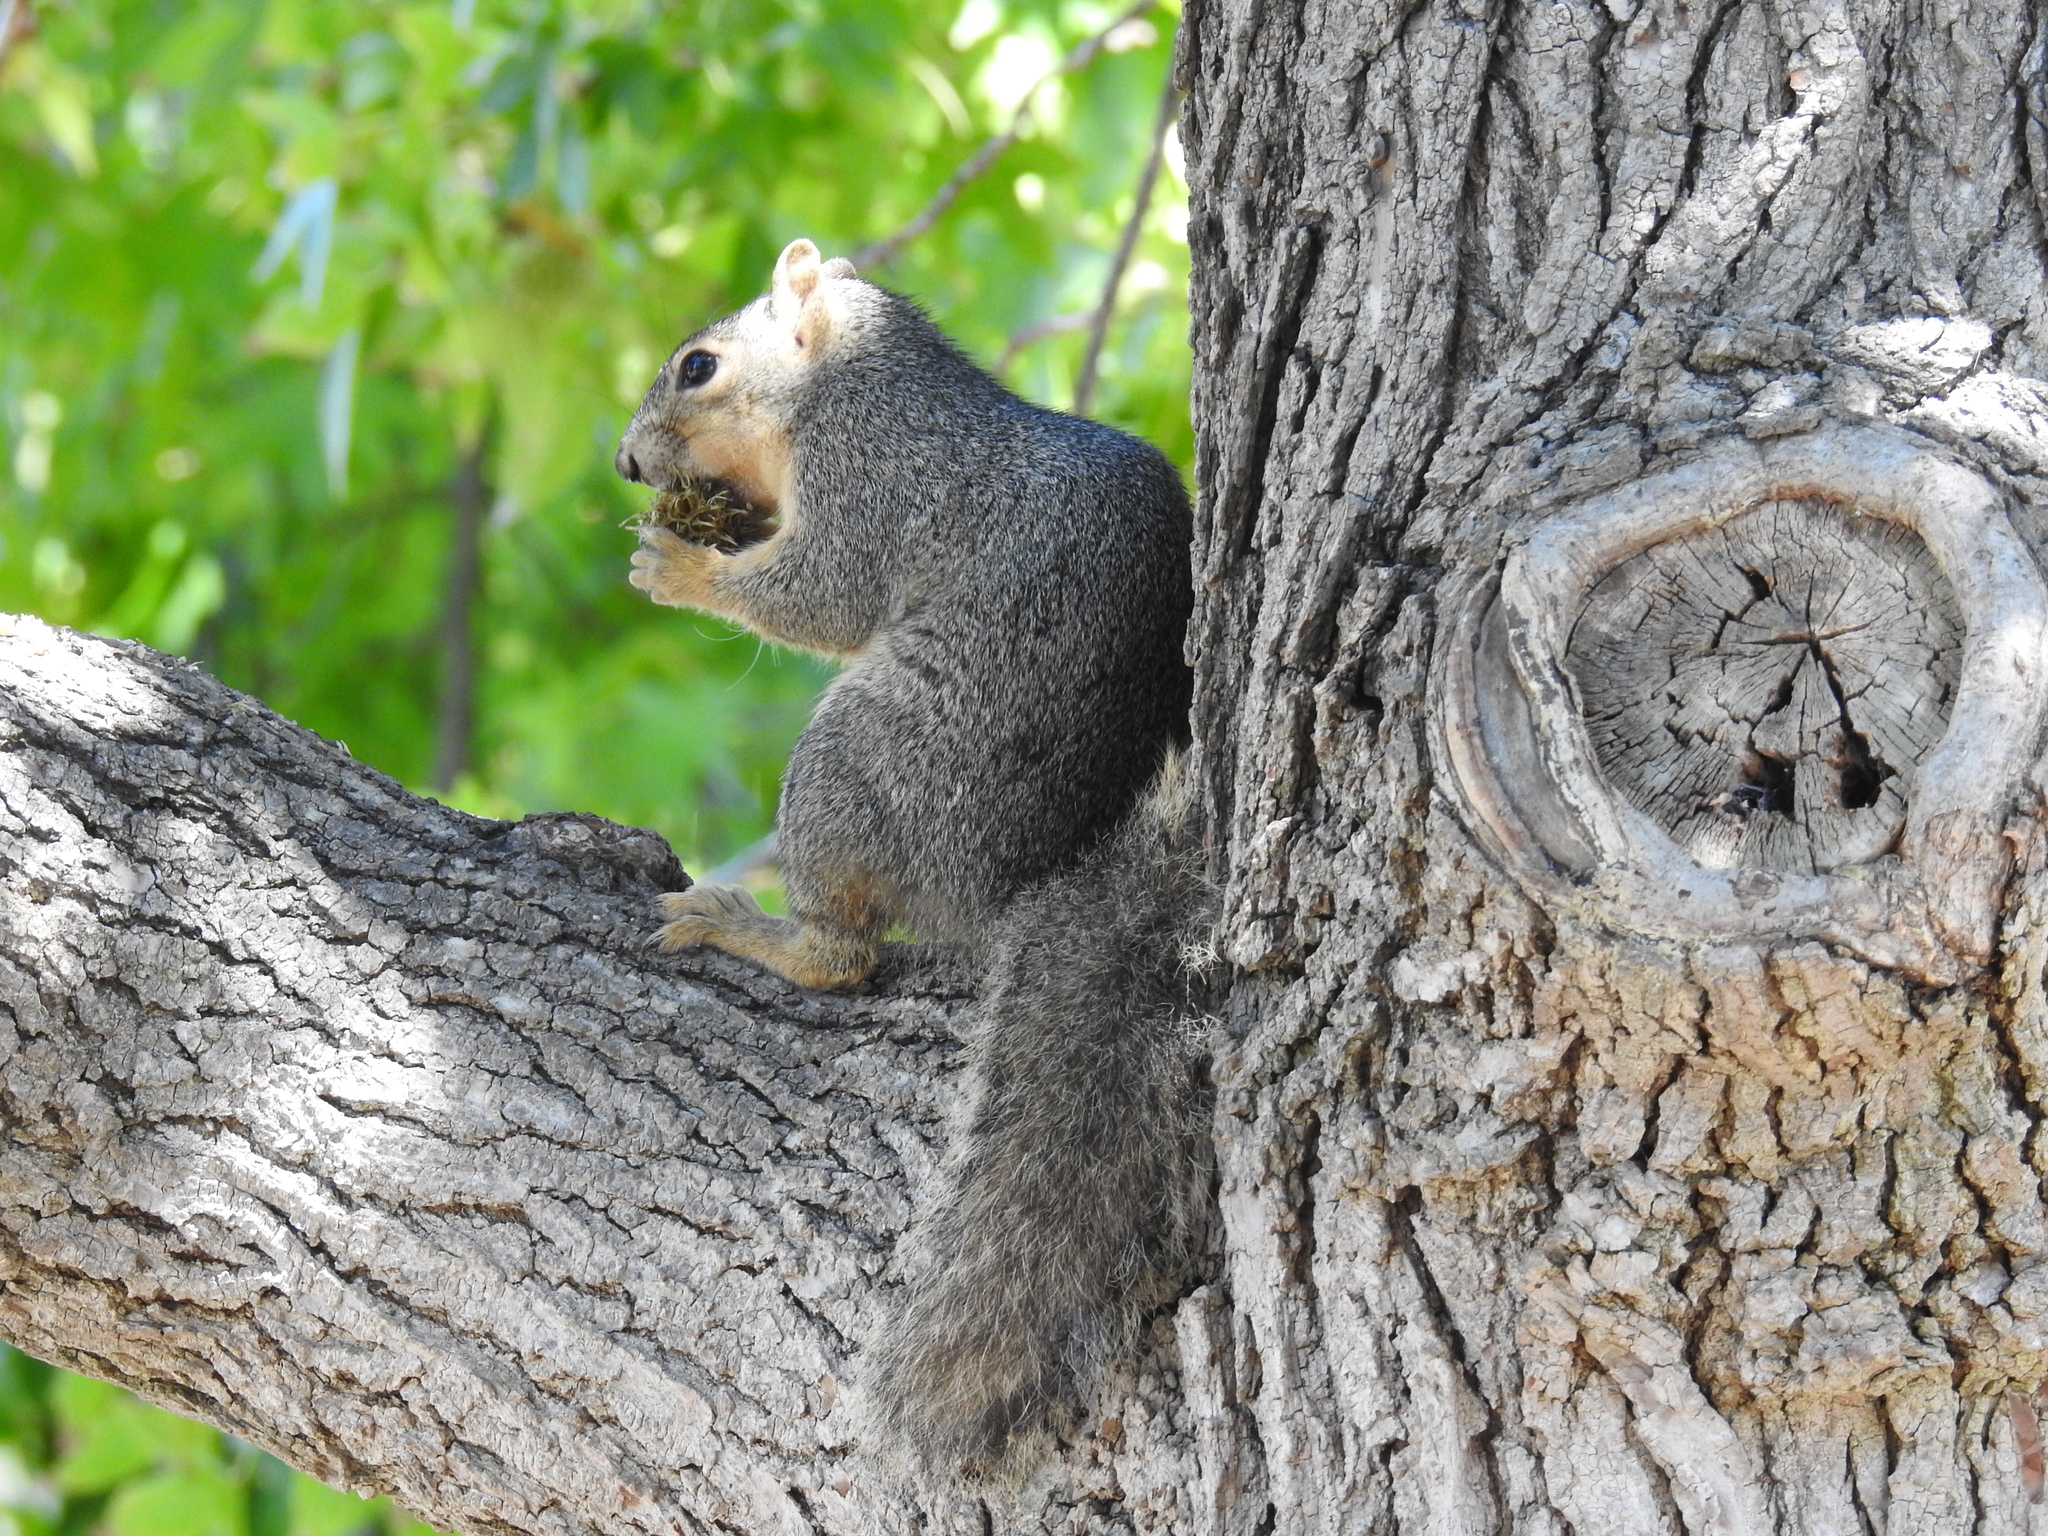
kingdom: Animalia
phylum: Chordata
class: Mammalia
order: Rodentia
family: Sciuridae
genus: Sciurus
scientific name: Sciurus niger
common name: Fox squirrel
